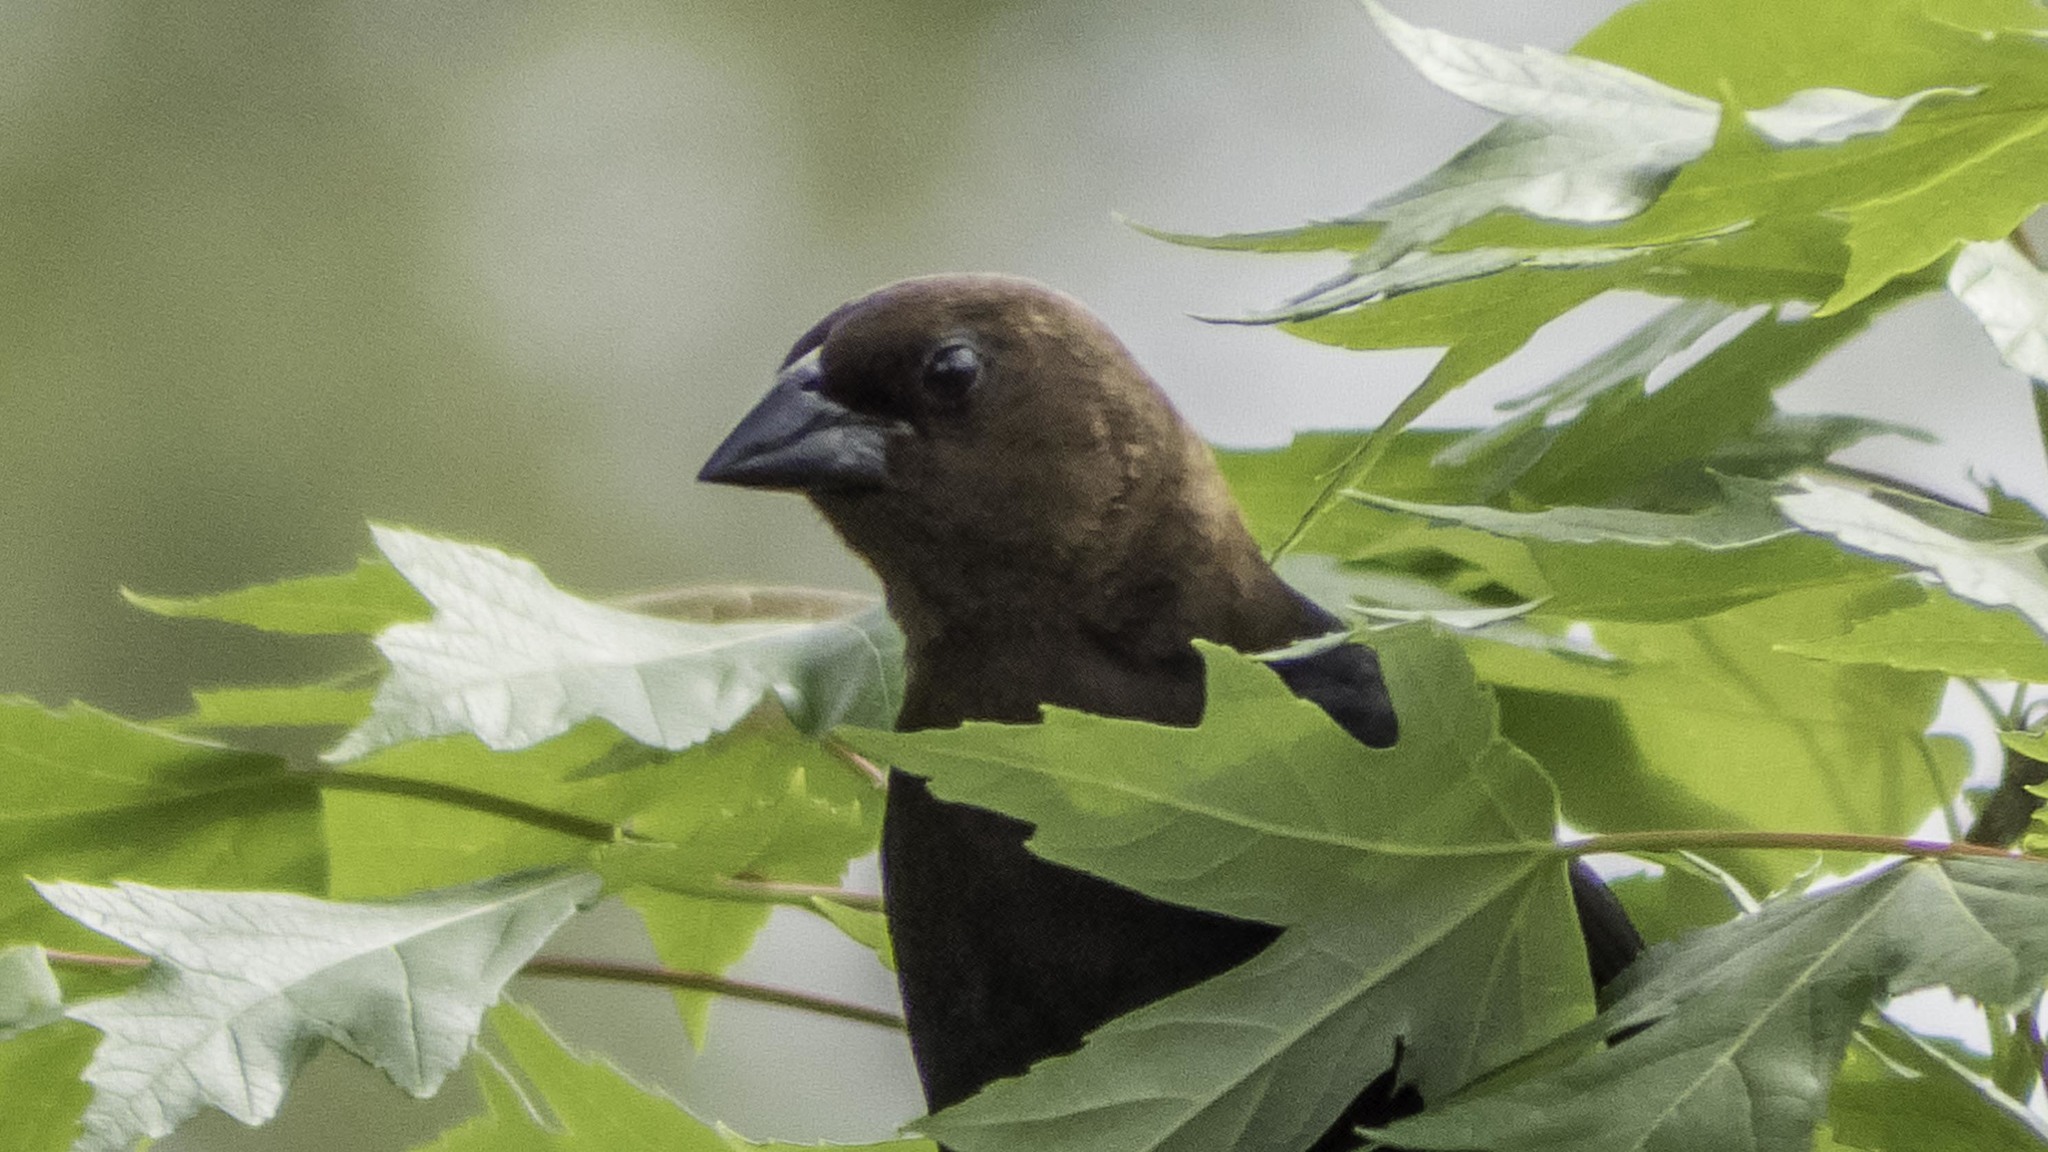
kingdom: Animalia
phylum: Chordata
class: Aves
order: Passeriformes
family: Icteridae
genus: Molothrus
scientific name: Molothrus ater
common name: Brown-headed cowbird
